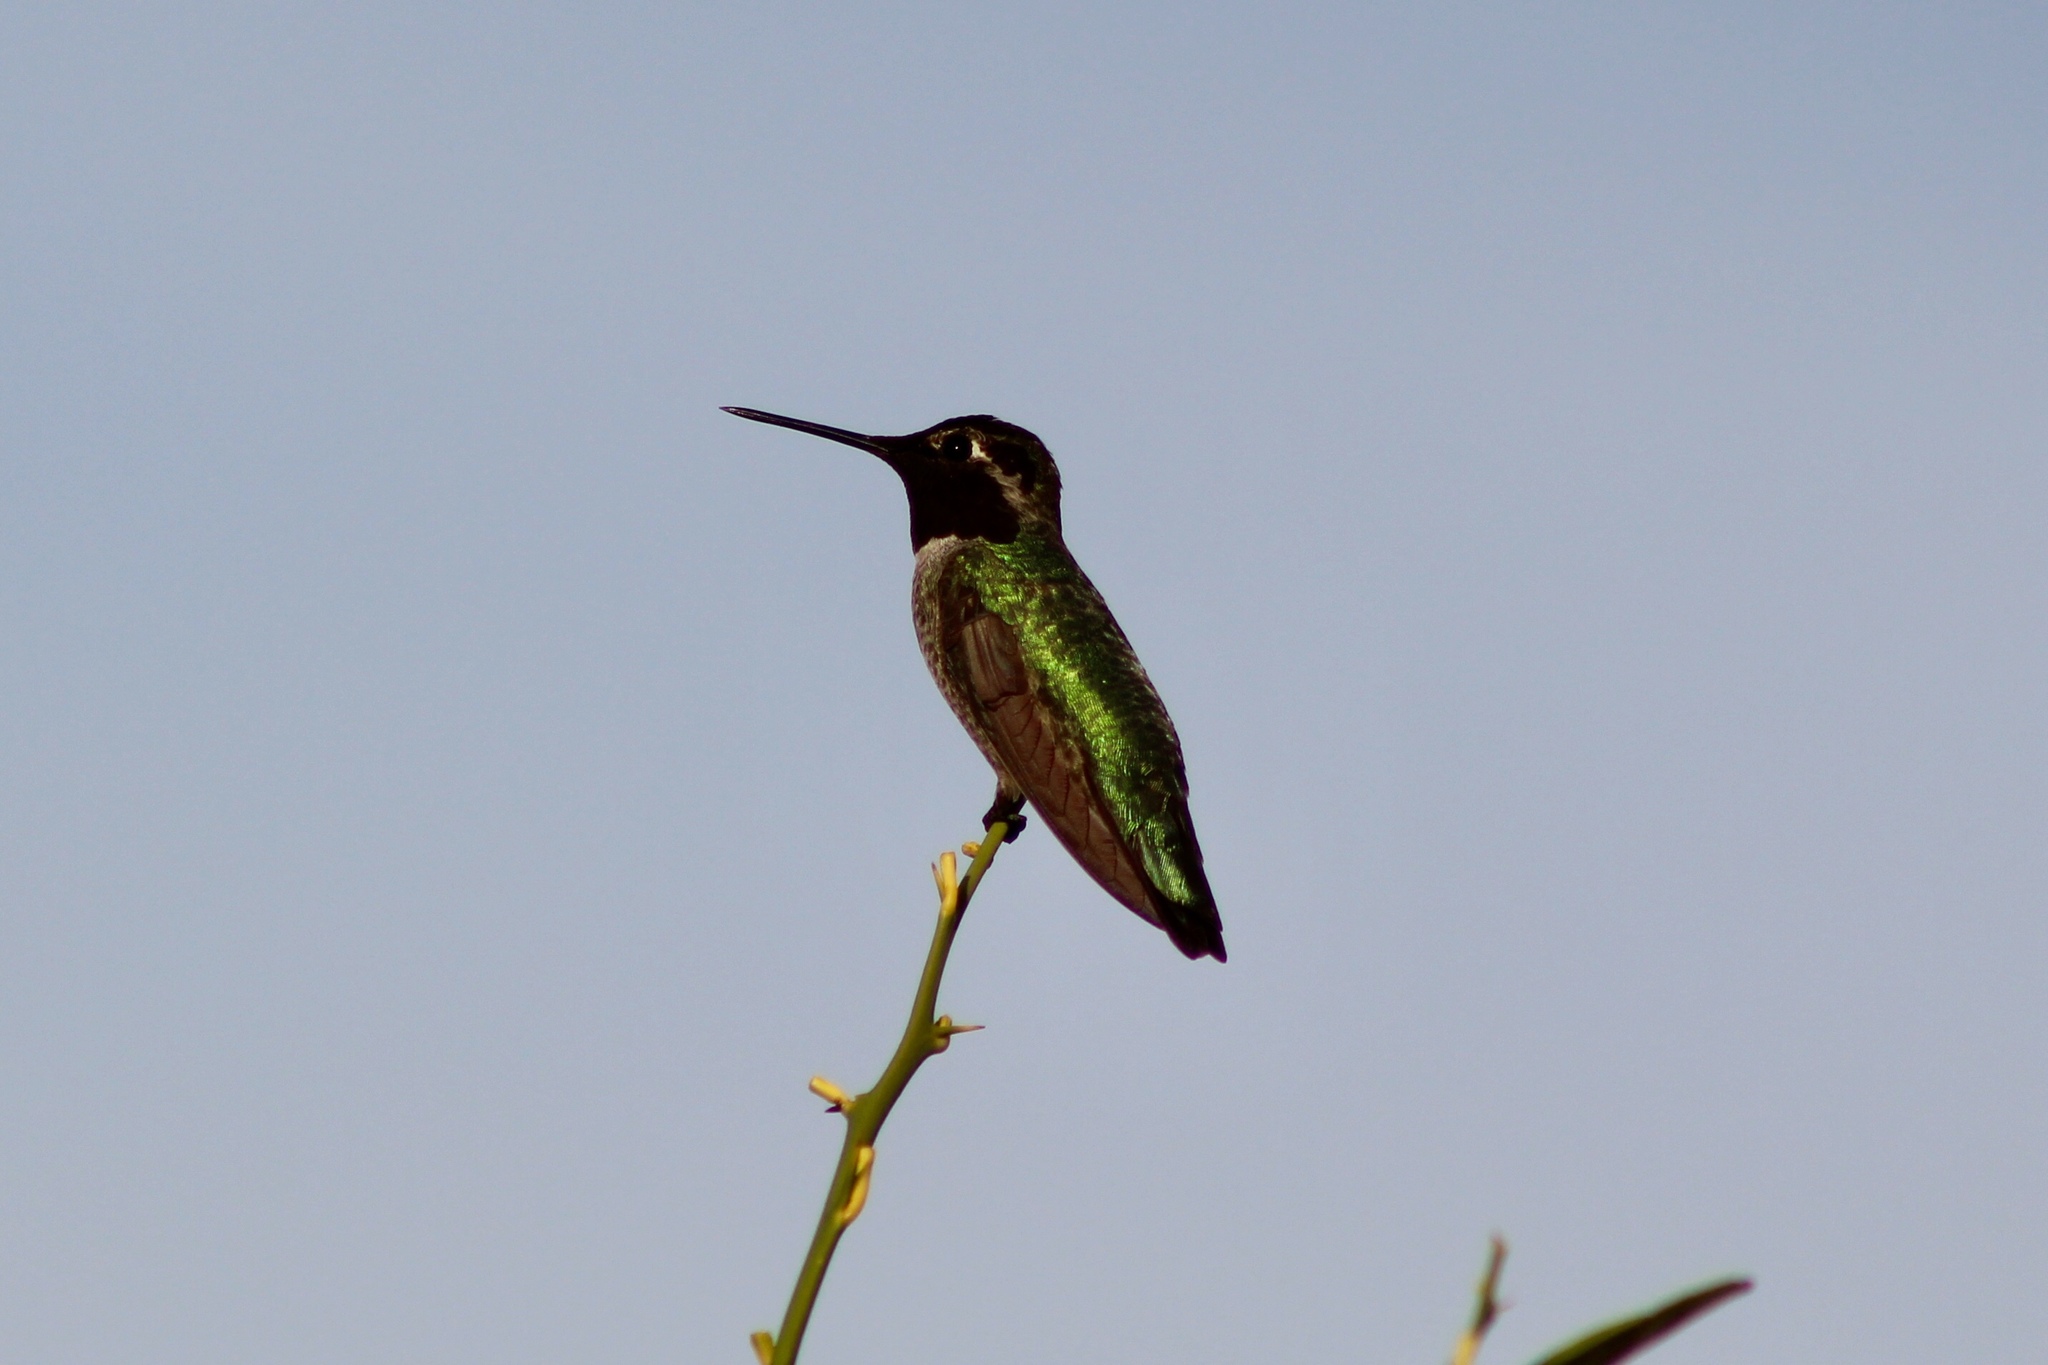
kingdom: Animalia
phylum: Chordata
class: Aves
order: Apodiformes
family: Trochilidae
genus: Calypte
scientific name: Calypte anna
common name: Anna's hummingbird
